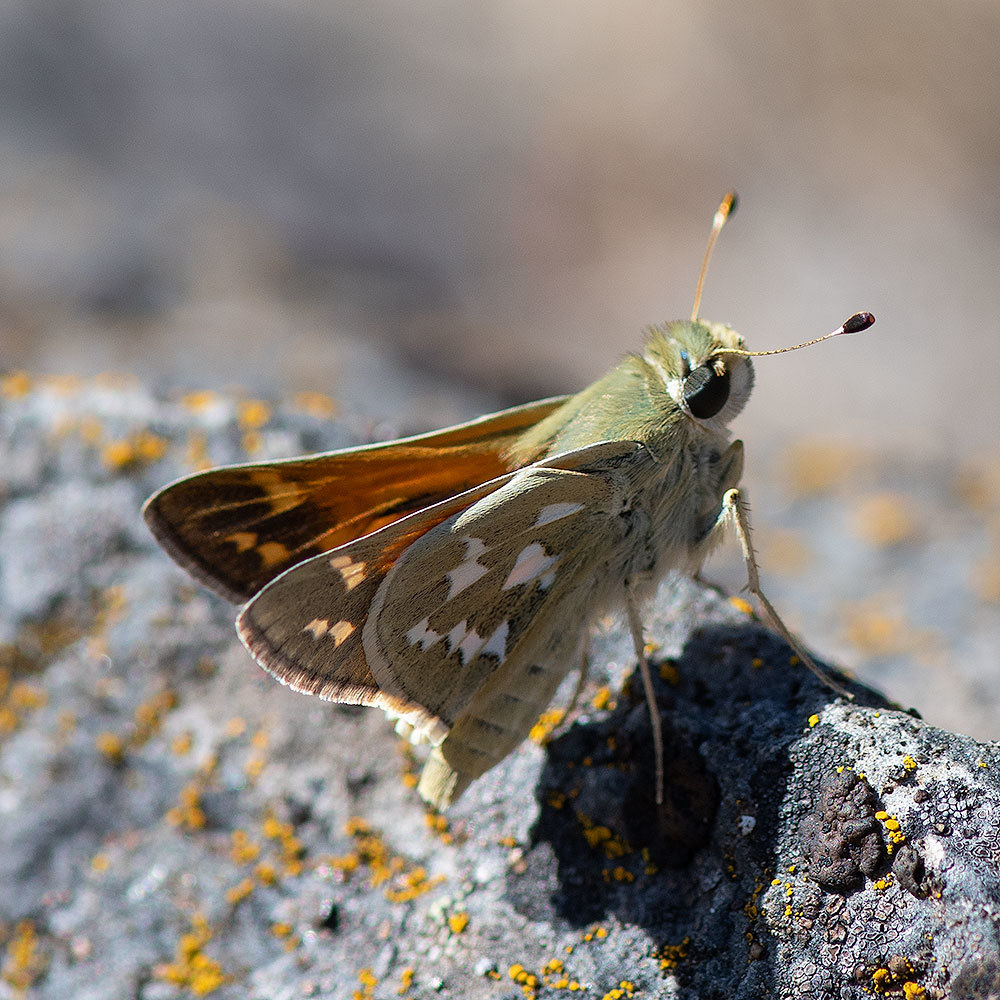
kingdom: Animalia
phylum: Arthropoda
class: Insecta
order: Lepidoptera
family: Hesperiidae
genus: Hesperia
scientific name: Hesperia juba
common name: Juba skipper
